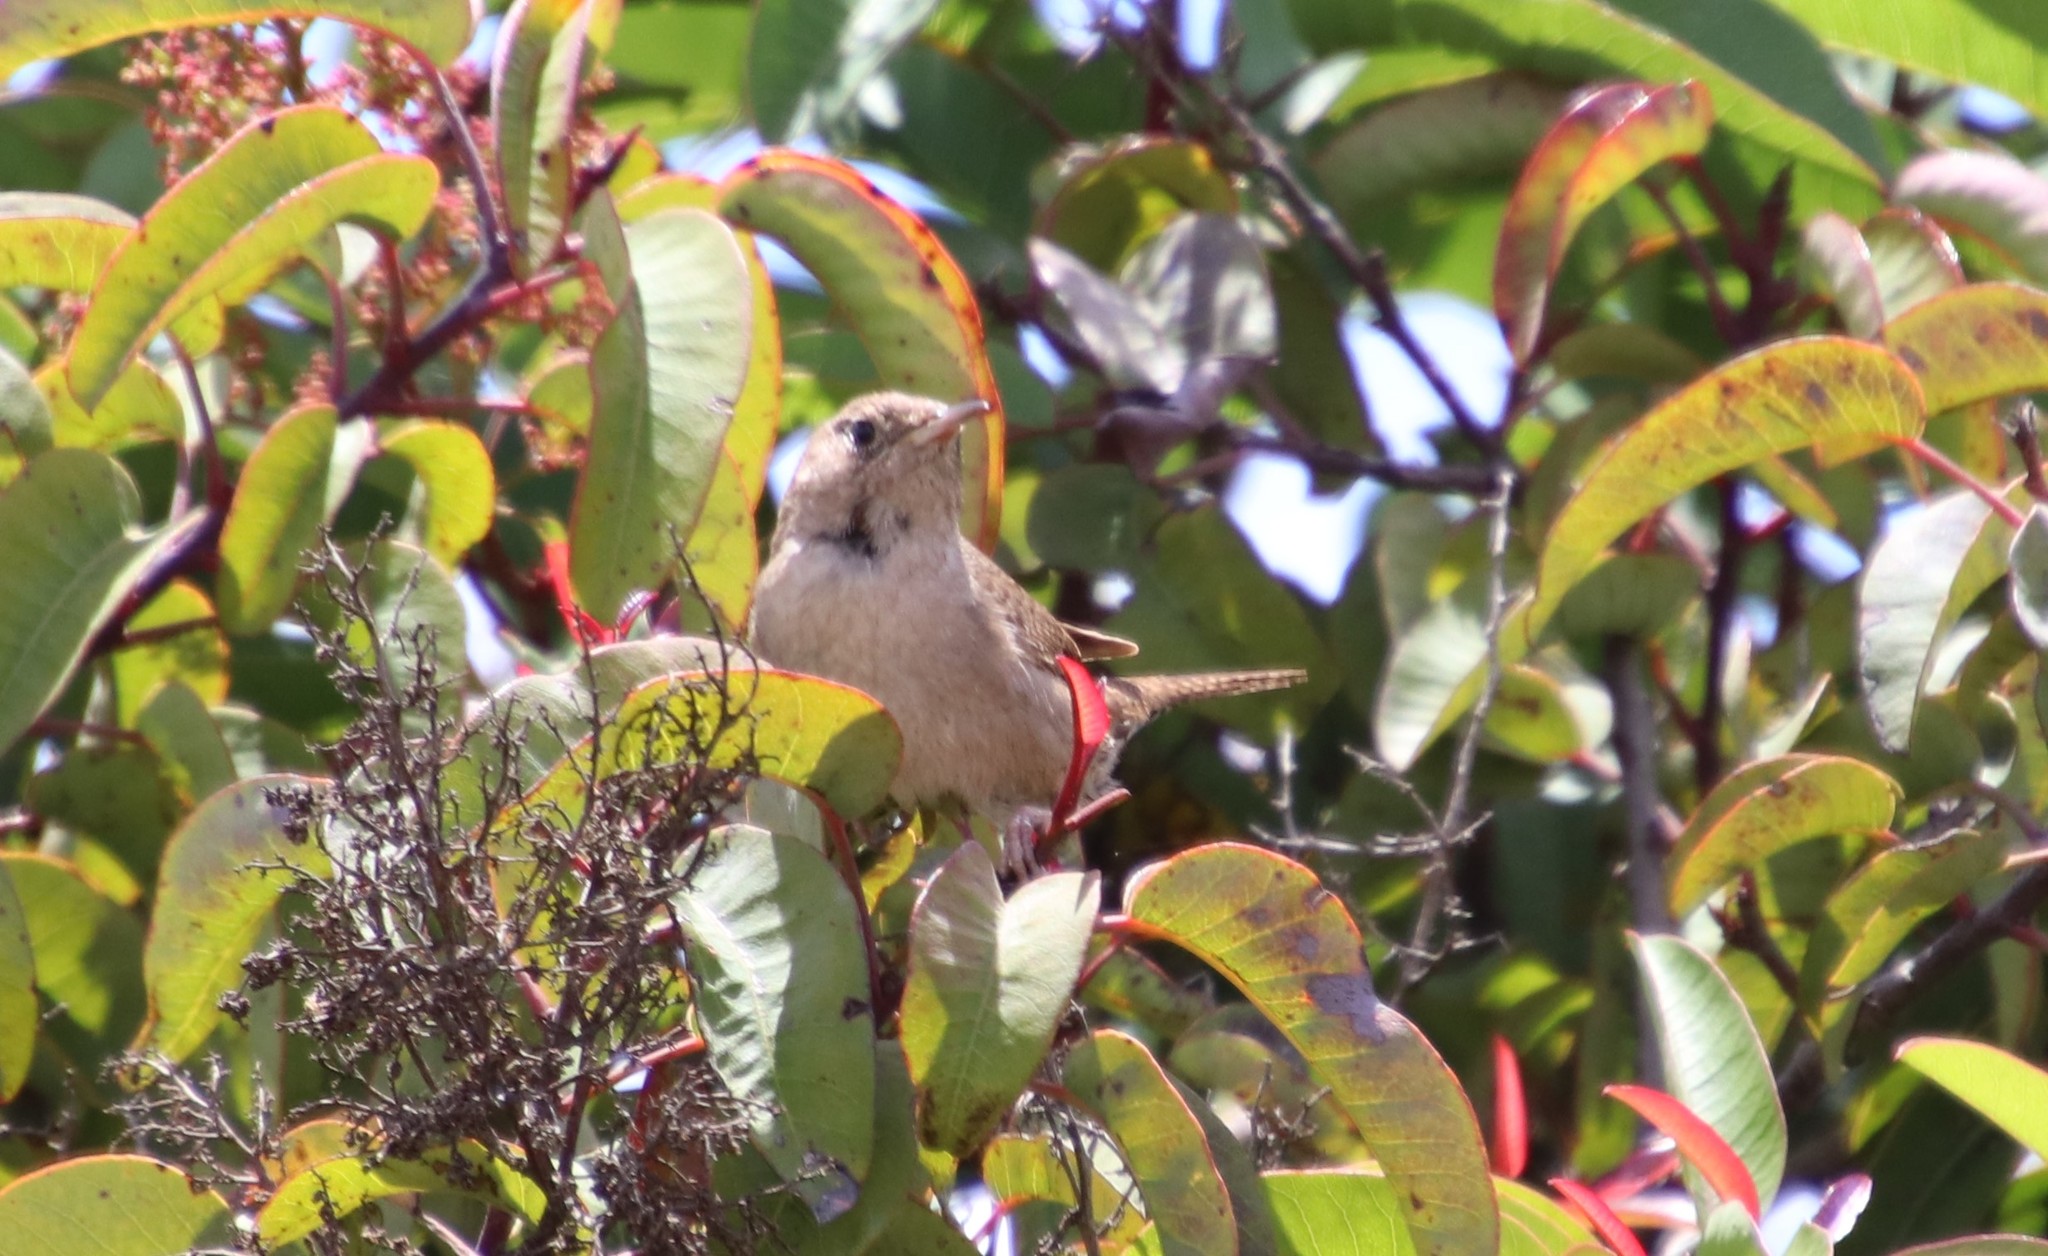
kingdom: Animalia
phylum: Chordata
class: Aves
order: Passeriformes
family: Troglodytidae
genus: Troglodytes
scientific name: Troglodytes aedon
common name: House wren
